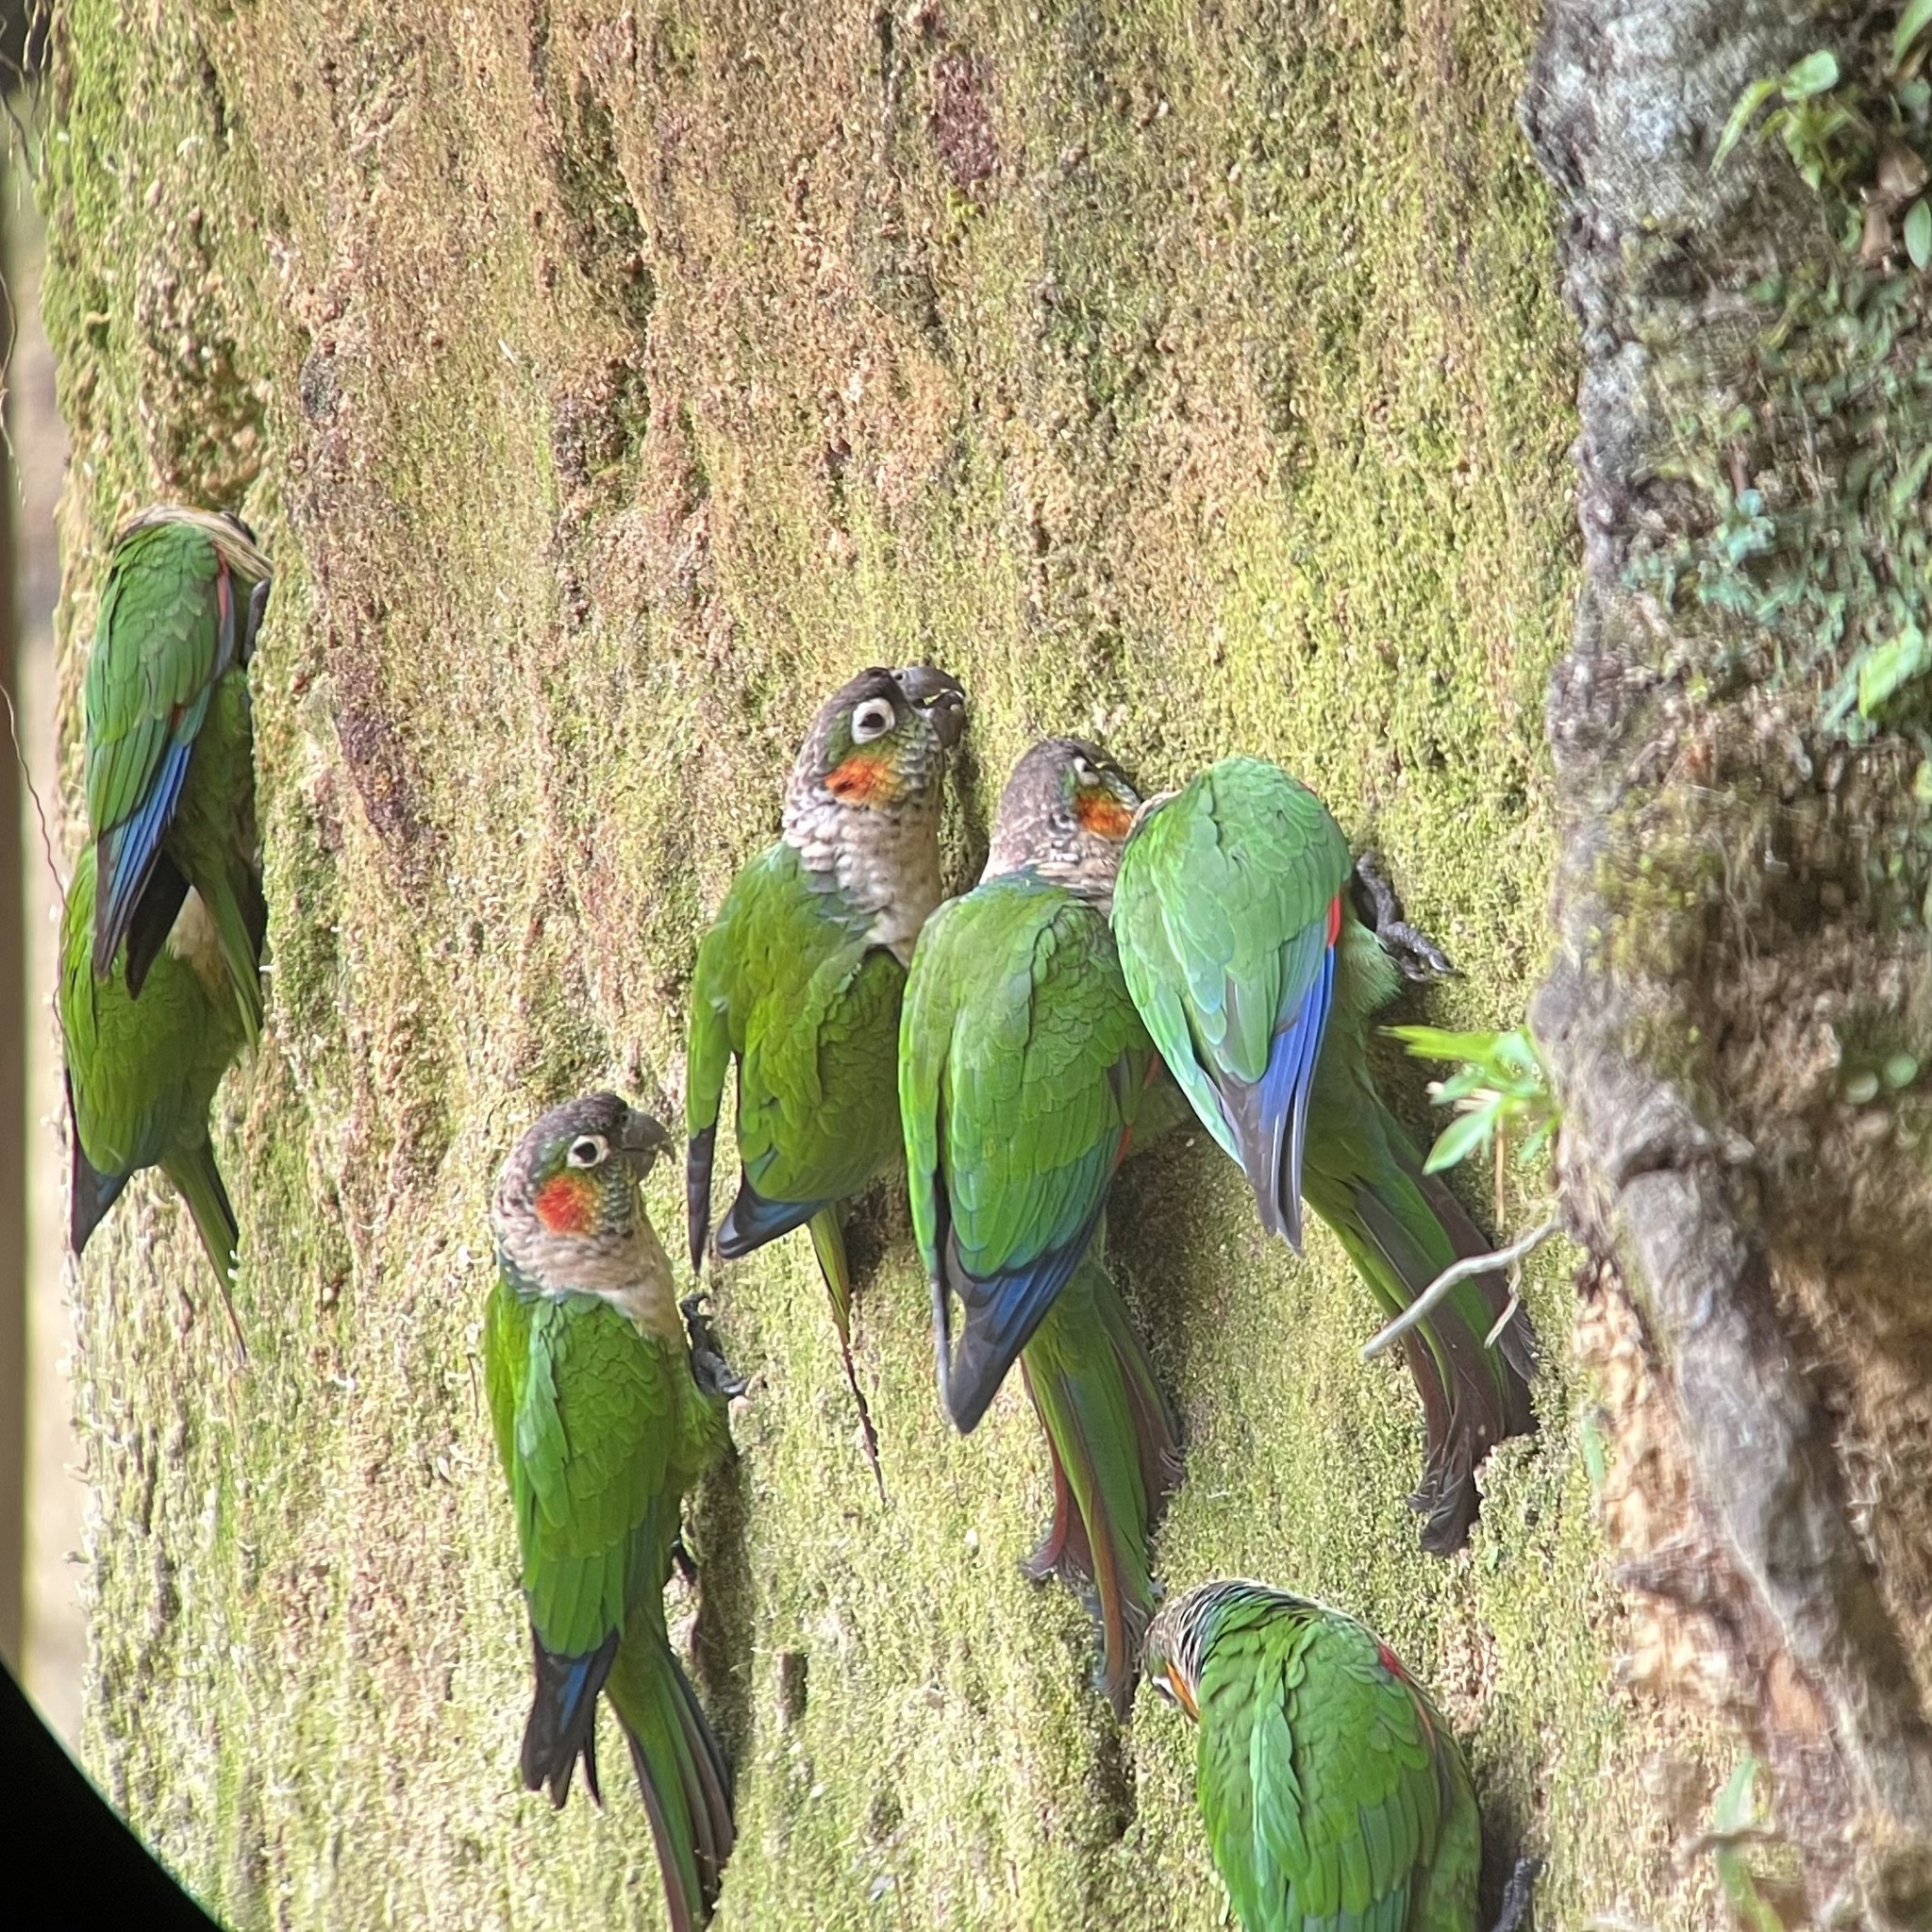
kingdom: Animalia
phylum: Chordata
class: Aves
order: Psittaciformes
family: Psittacidae
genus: Pyrrhura
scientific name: Pyrrhura albipectus
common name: White-breasted parakeet
